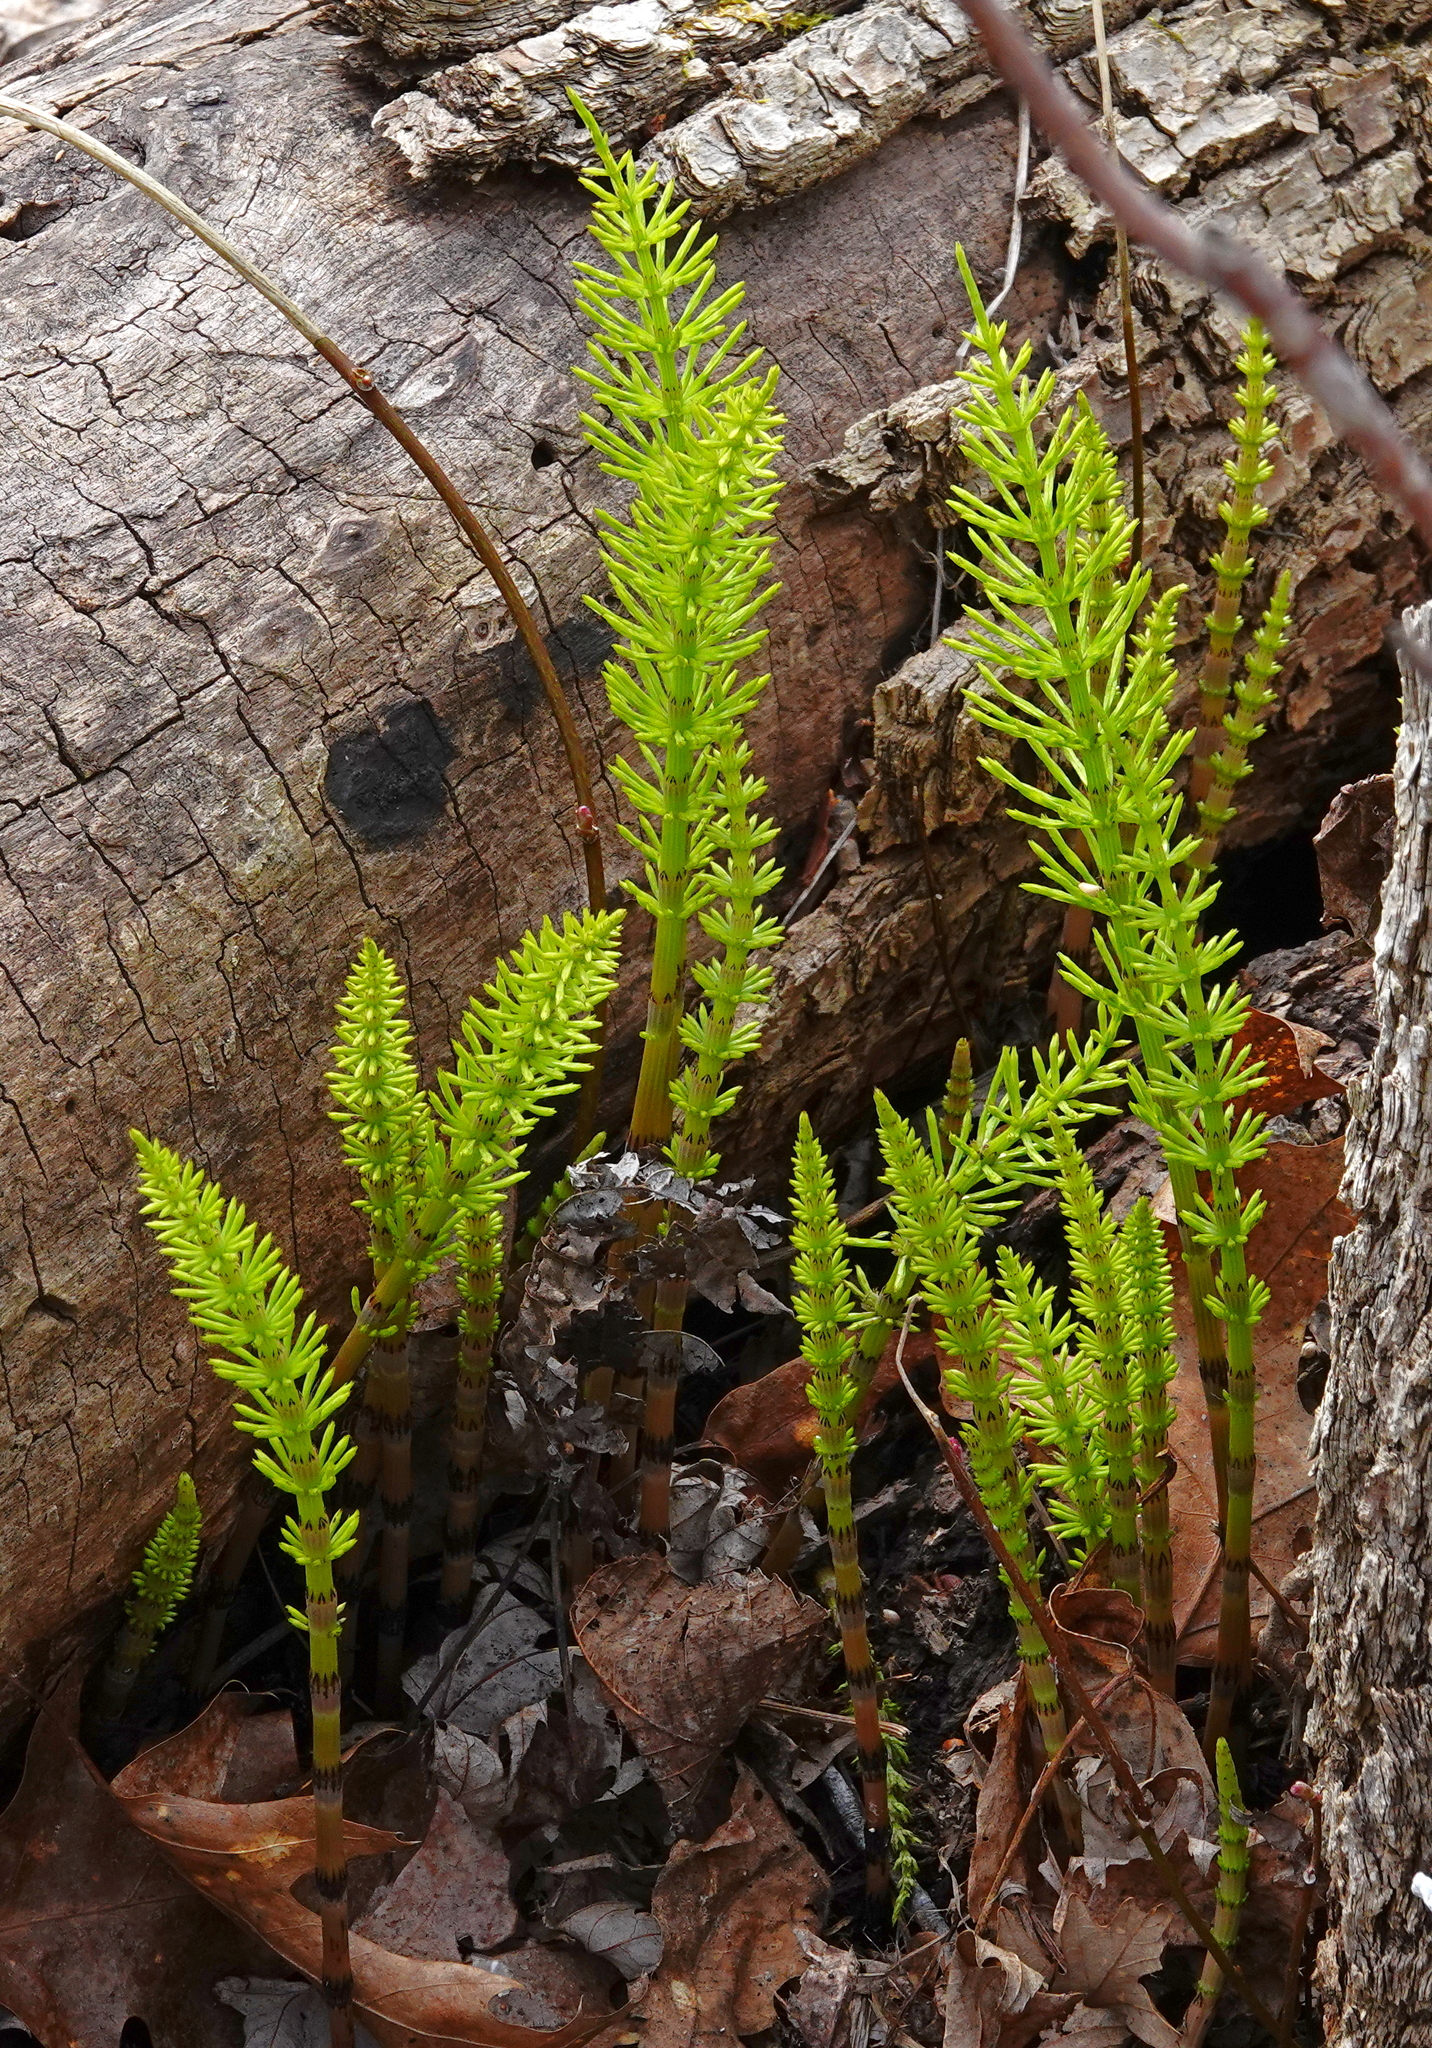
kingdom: Plantae
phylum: Tracheophyta
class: Polypodiopsida
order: Equisetales
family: Equisetaceae
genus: Equisetum
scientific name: Equisetum arvense
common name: Field horsetail
